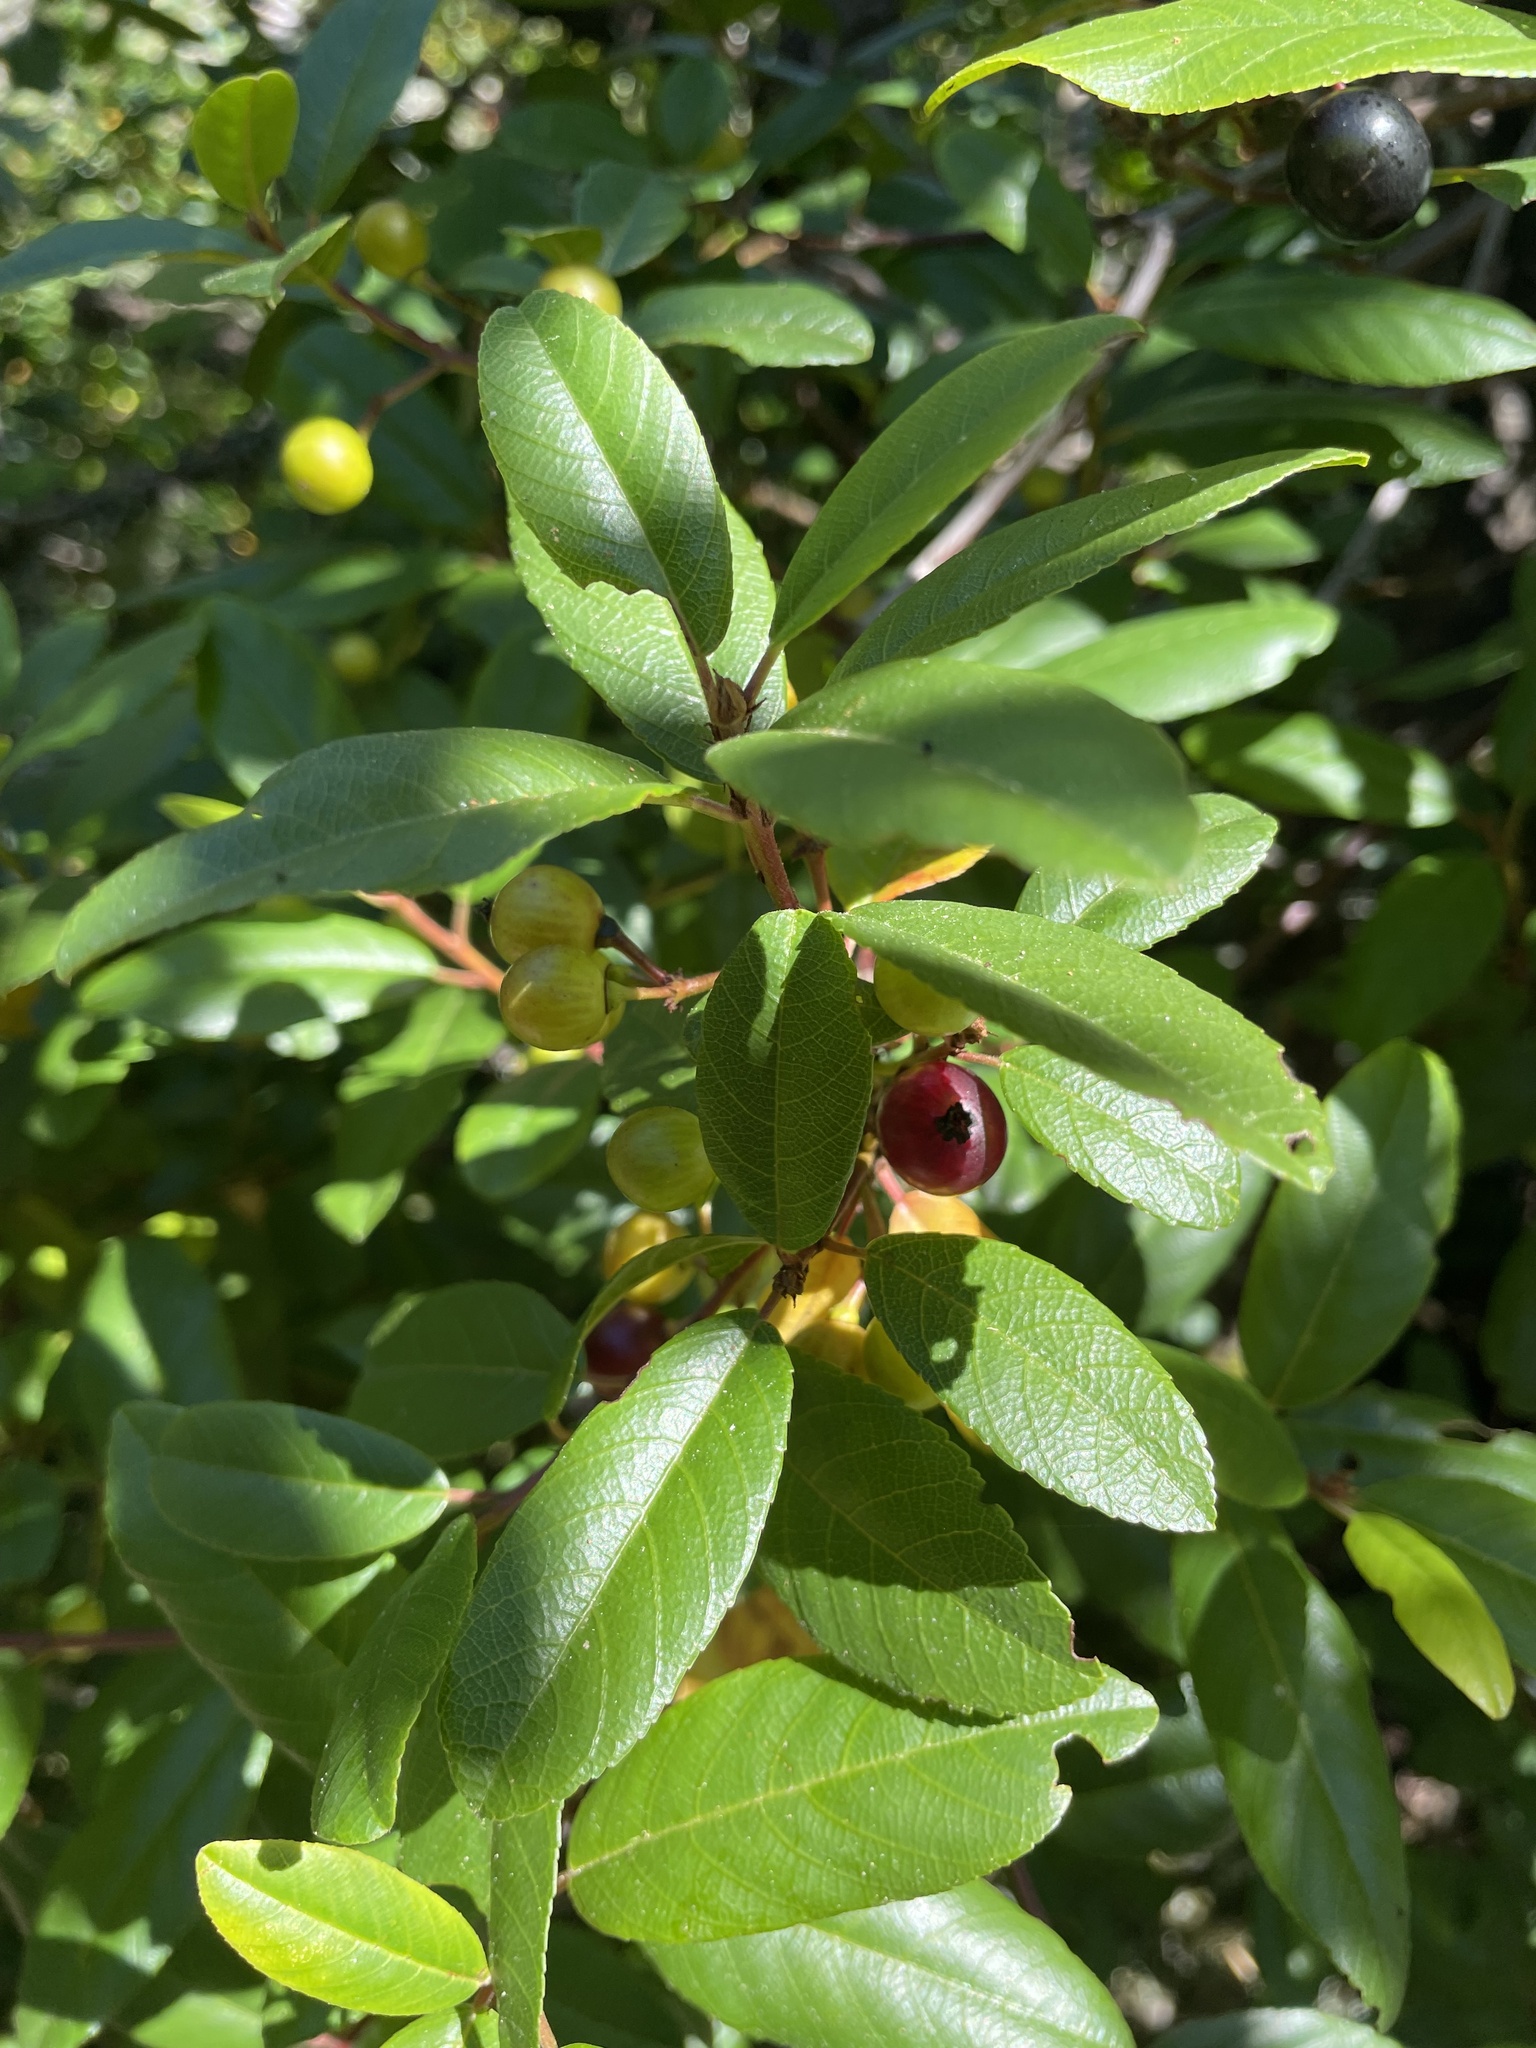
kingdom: Plantae
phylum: Tracheophyta
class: Magnoliopsida
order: Rosales
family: Rhamnaceae
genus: Frangula
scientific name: Frangula californica
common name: California buckthorn
